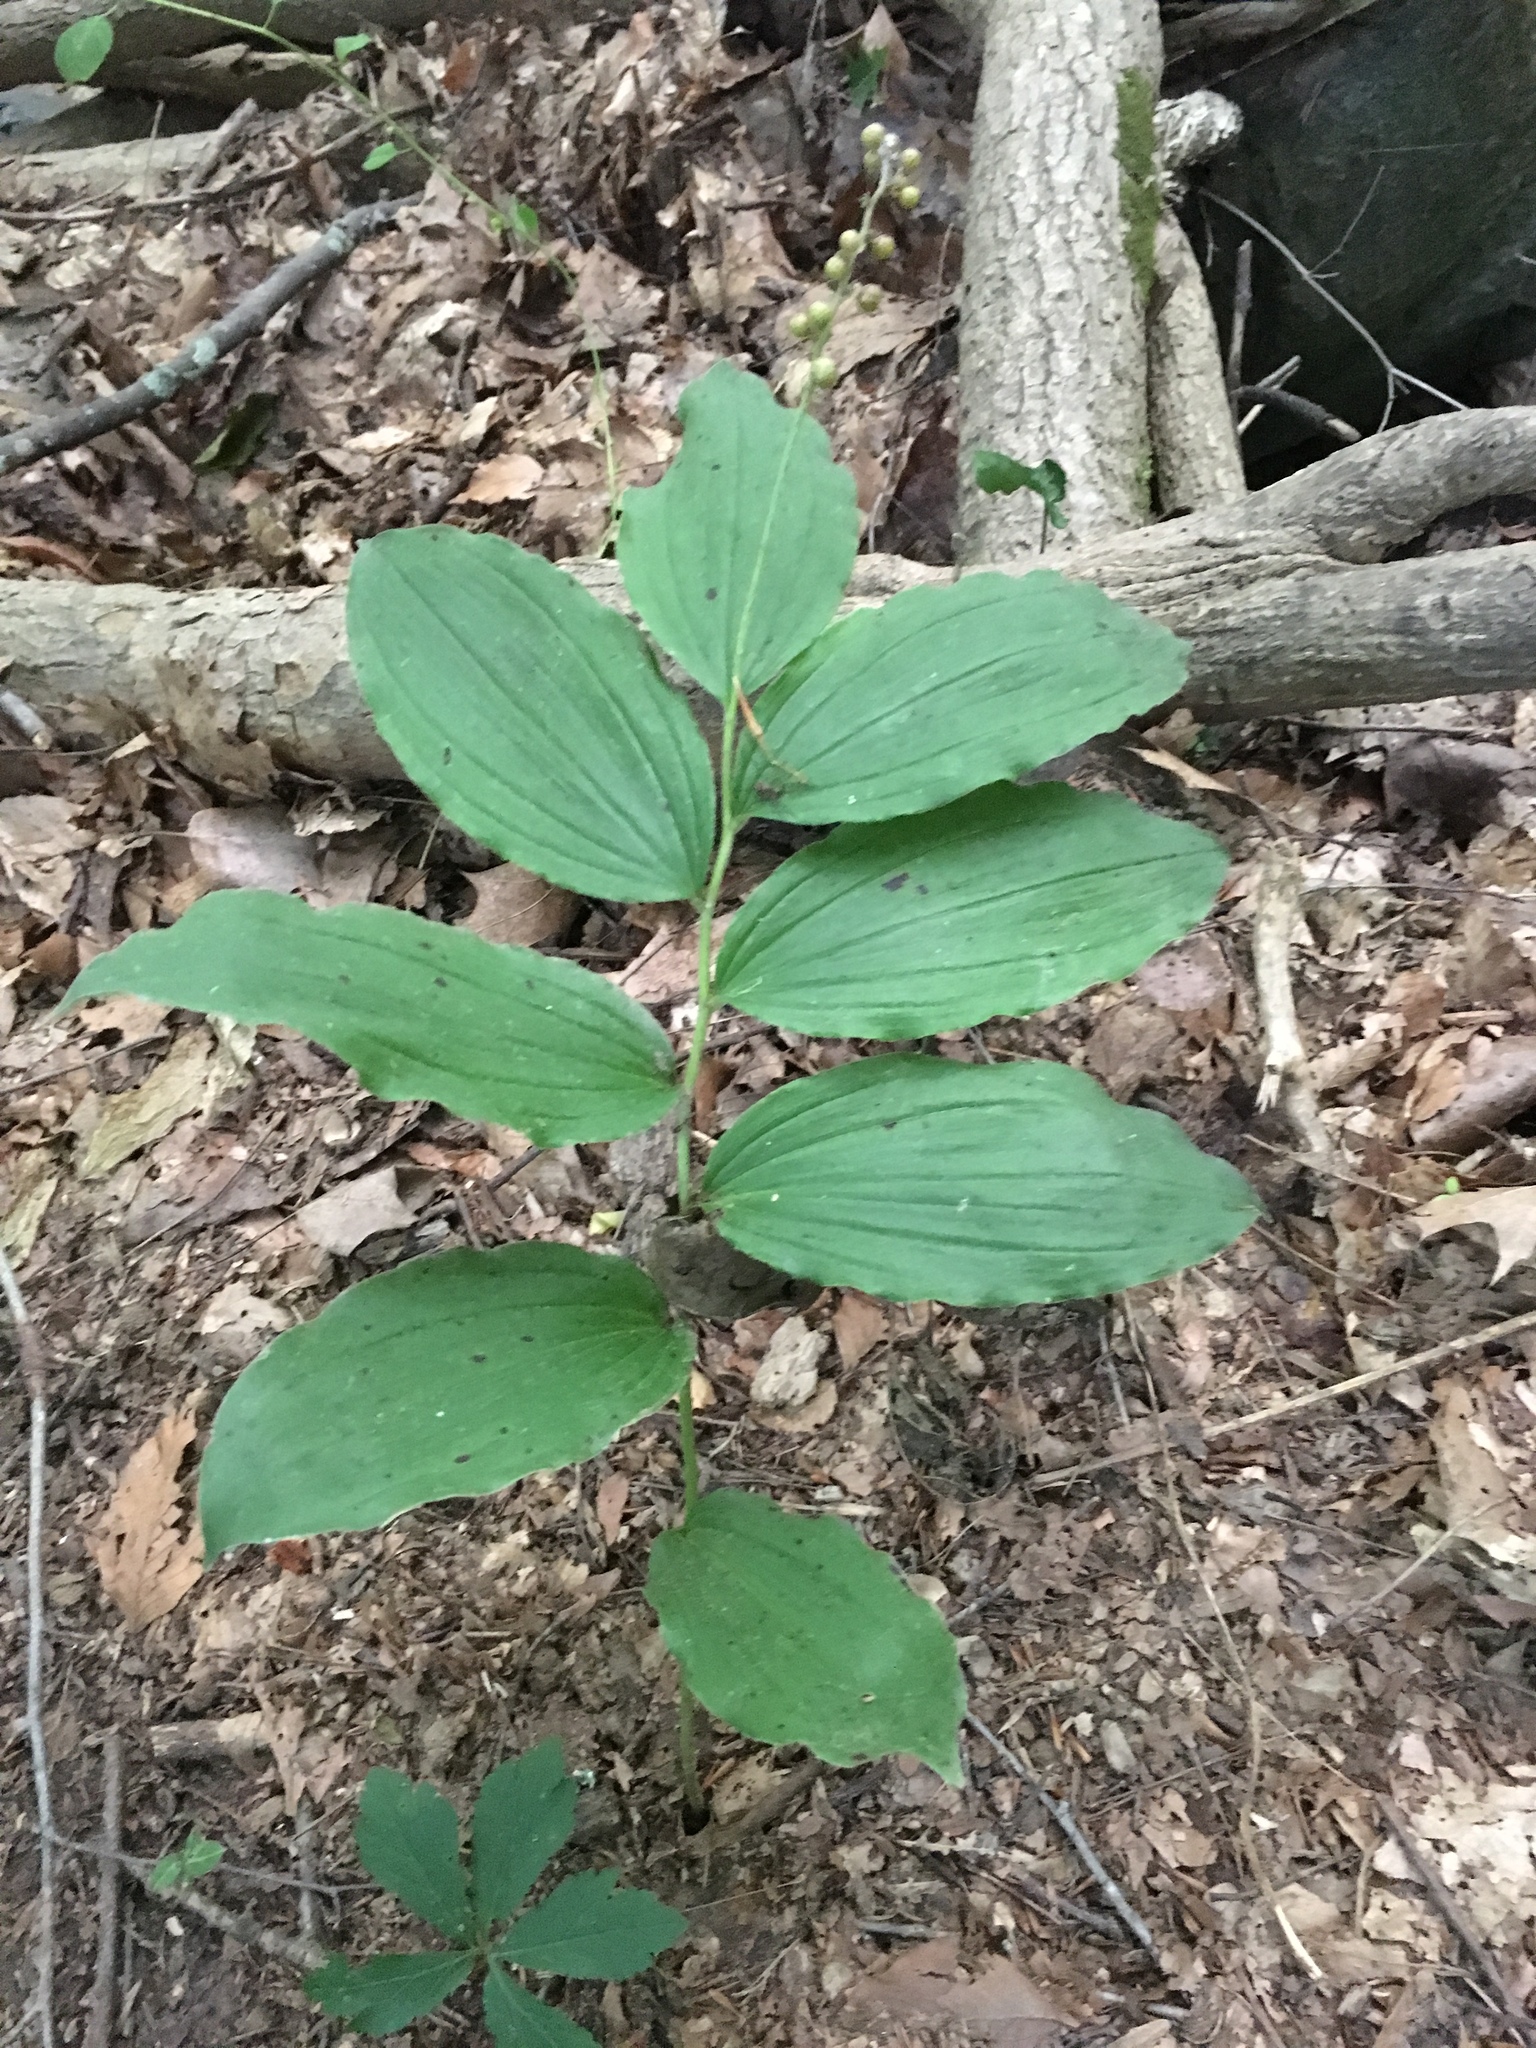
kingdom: Plantae
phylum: Tracheophyta
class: Liliopsida
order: Asparagales
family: Asparagaceae
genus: Maianthemum
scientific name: Maianthemum racemosum
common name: False spikenard
